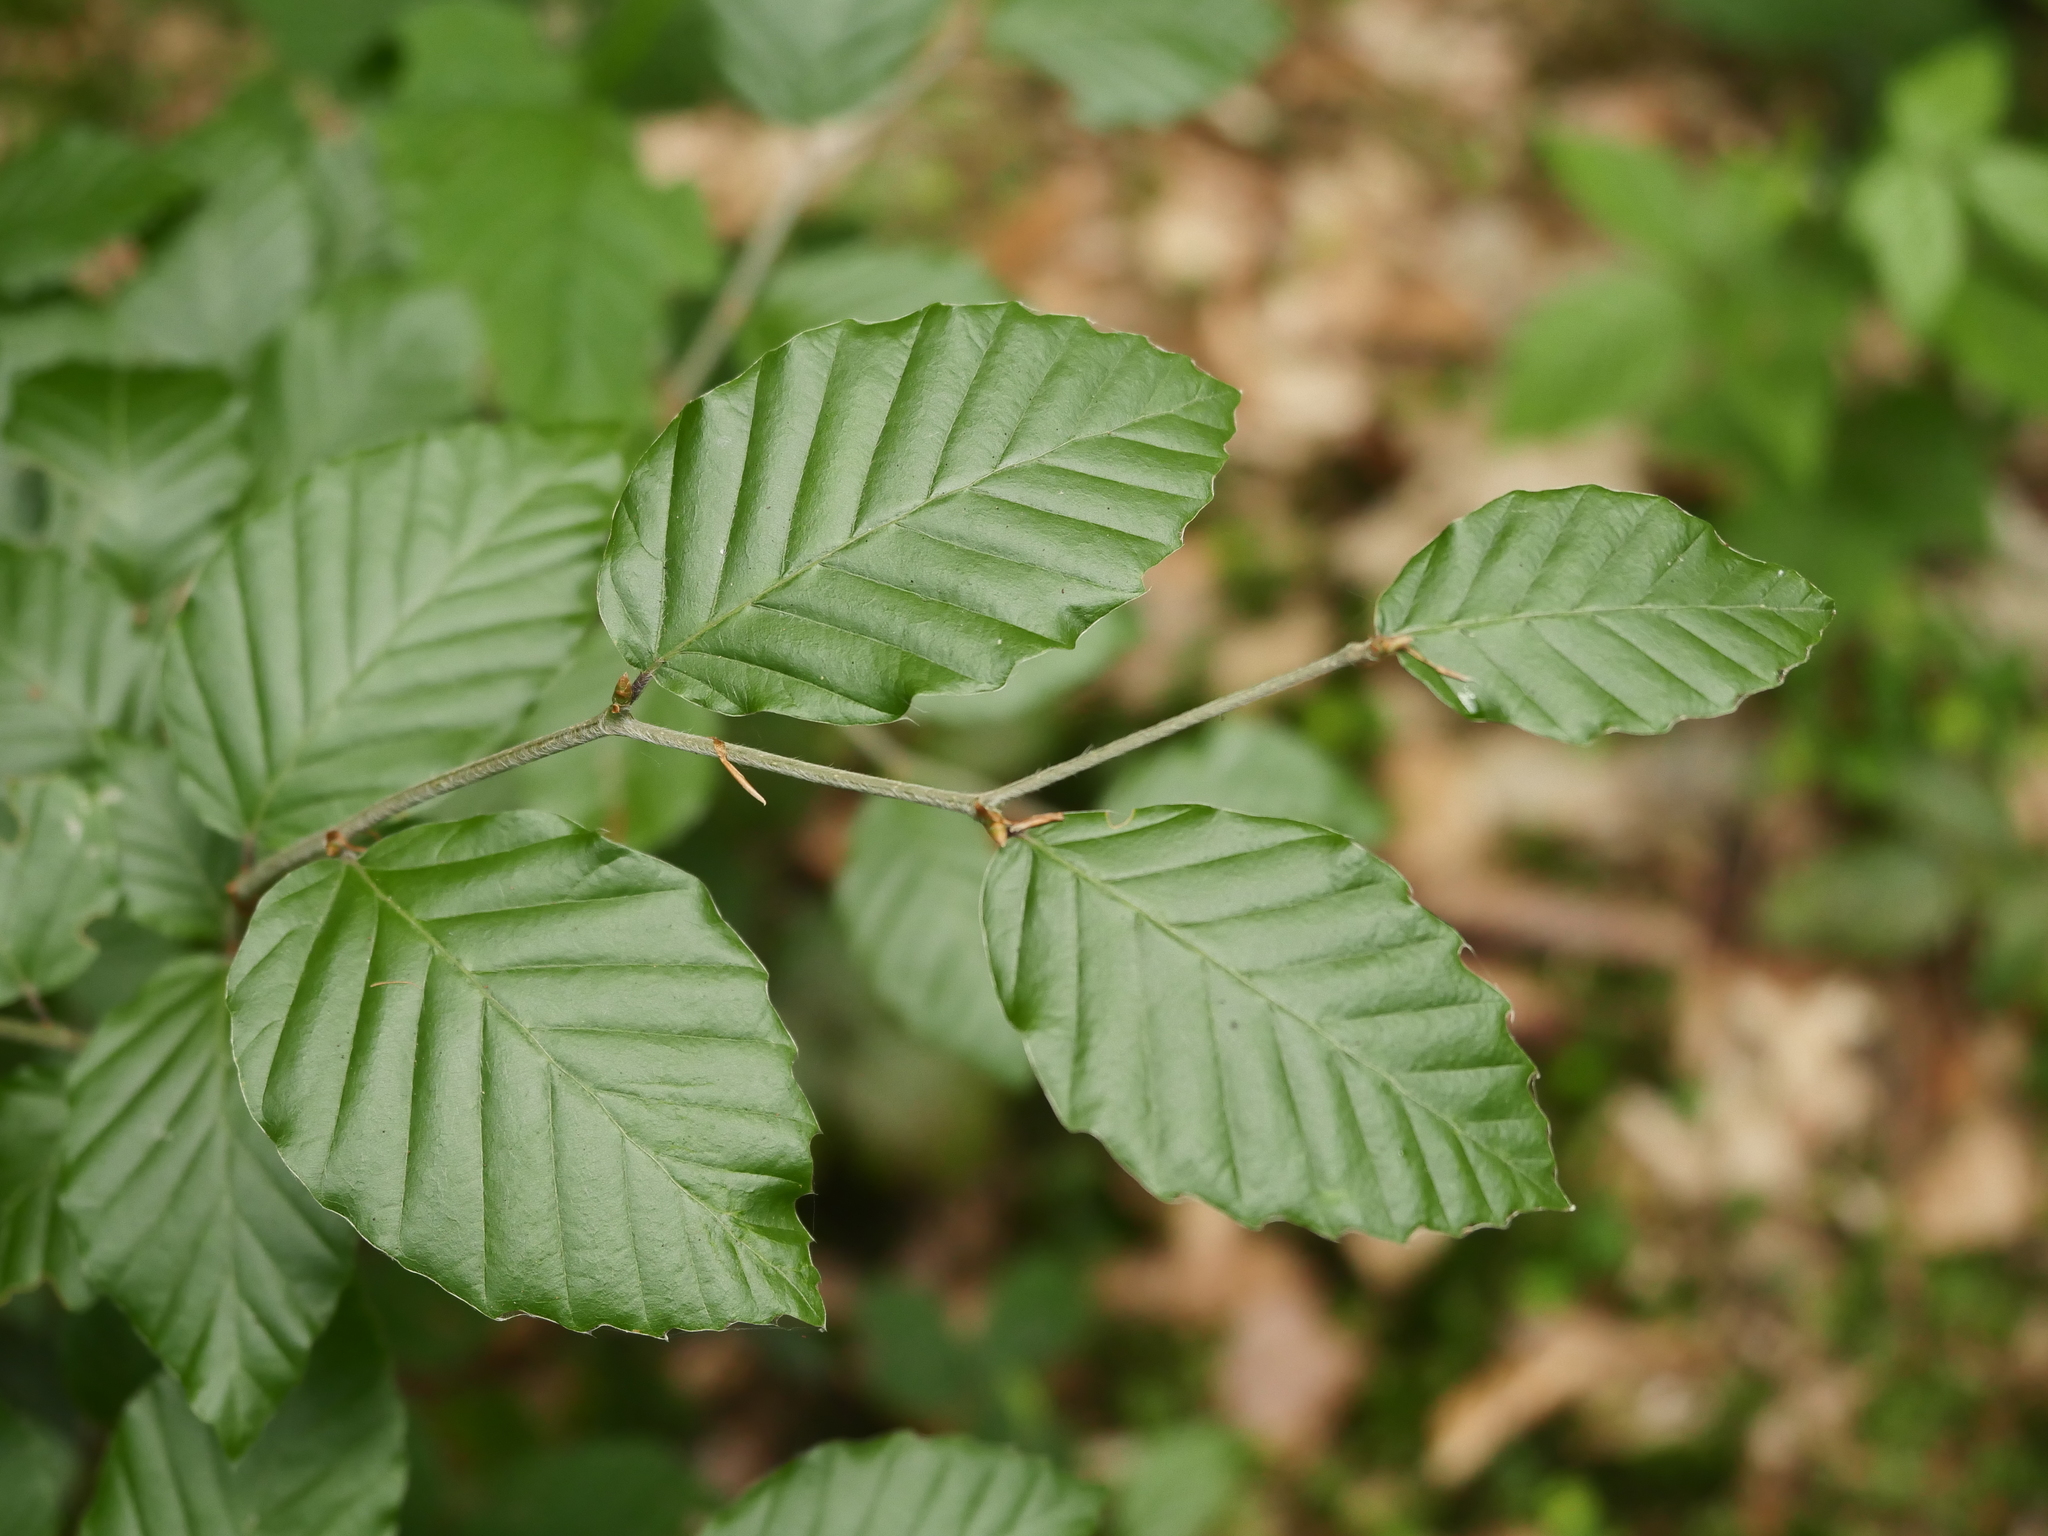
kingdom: Plantae
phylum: Tracheophyta
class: Magnoliopsida
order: Fagales
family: Fagaceae
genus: Fagus
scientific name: Fagus sylvatica
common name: Beech
